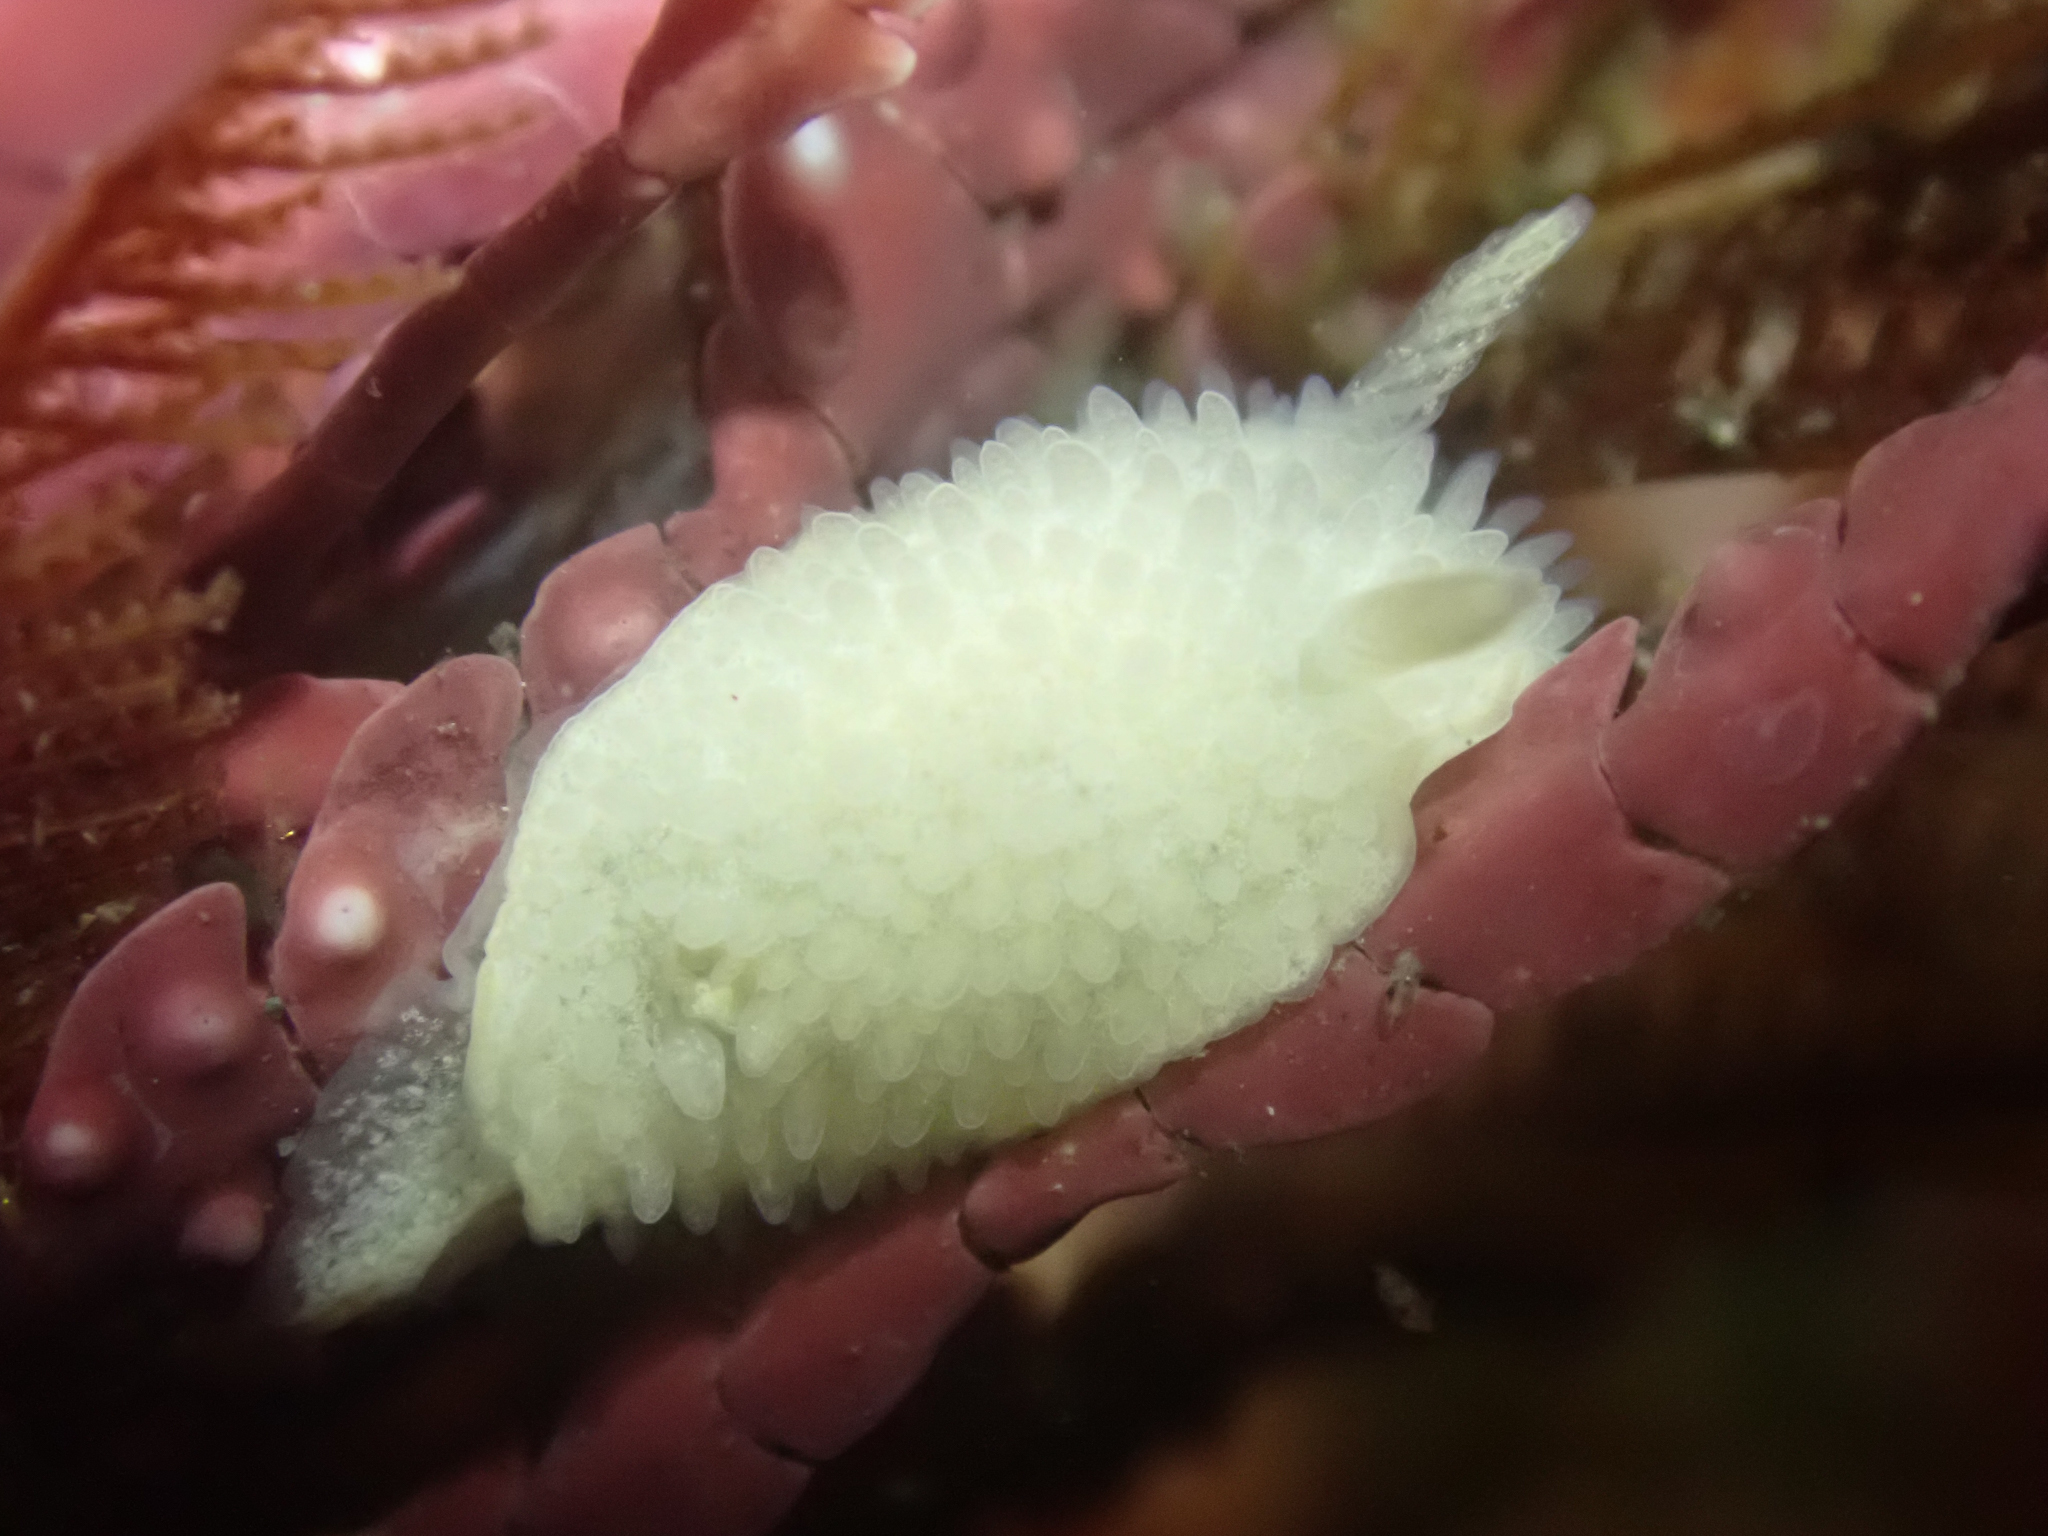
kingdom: Animalia
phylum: Mollusca
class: Gastropoda
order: Nudibranchia
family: Calycidorididae
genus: Diaphorodoris
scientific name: Diaphorodoris lirulatocauda
